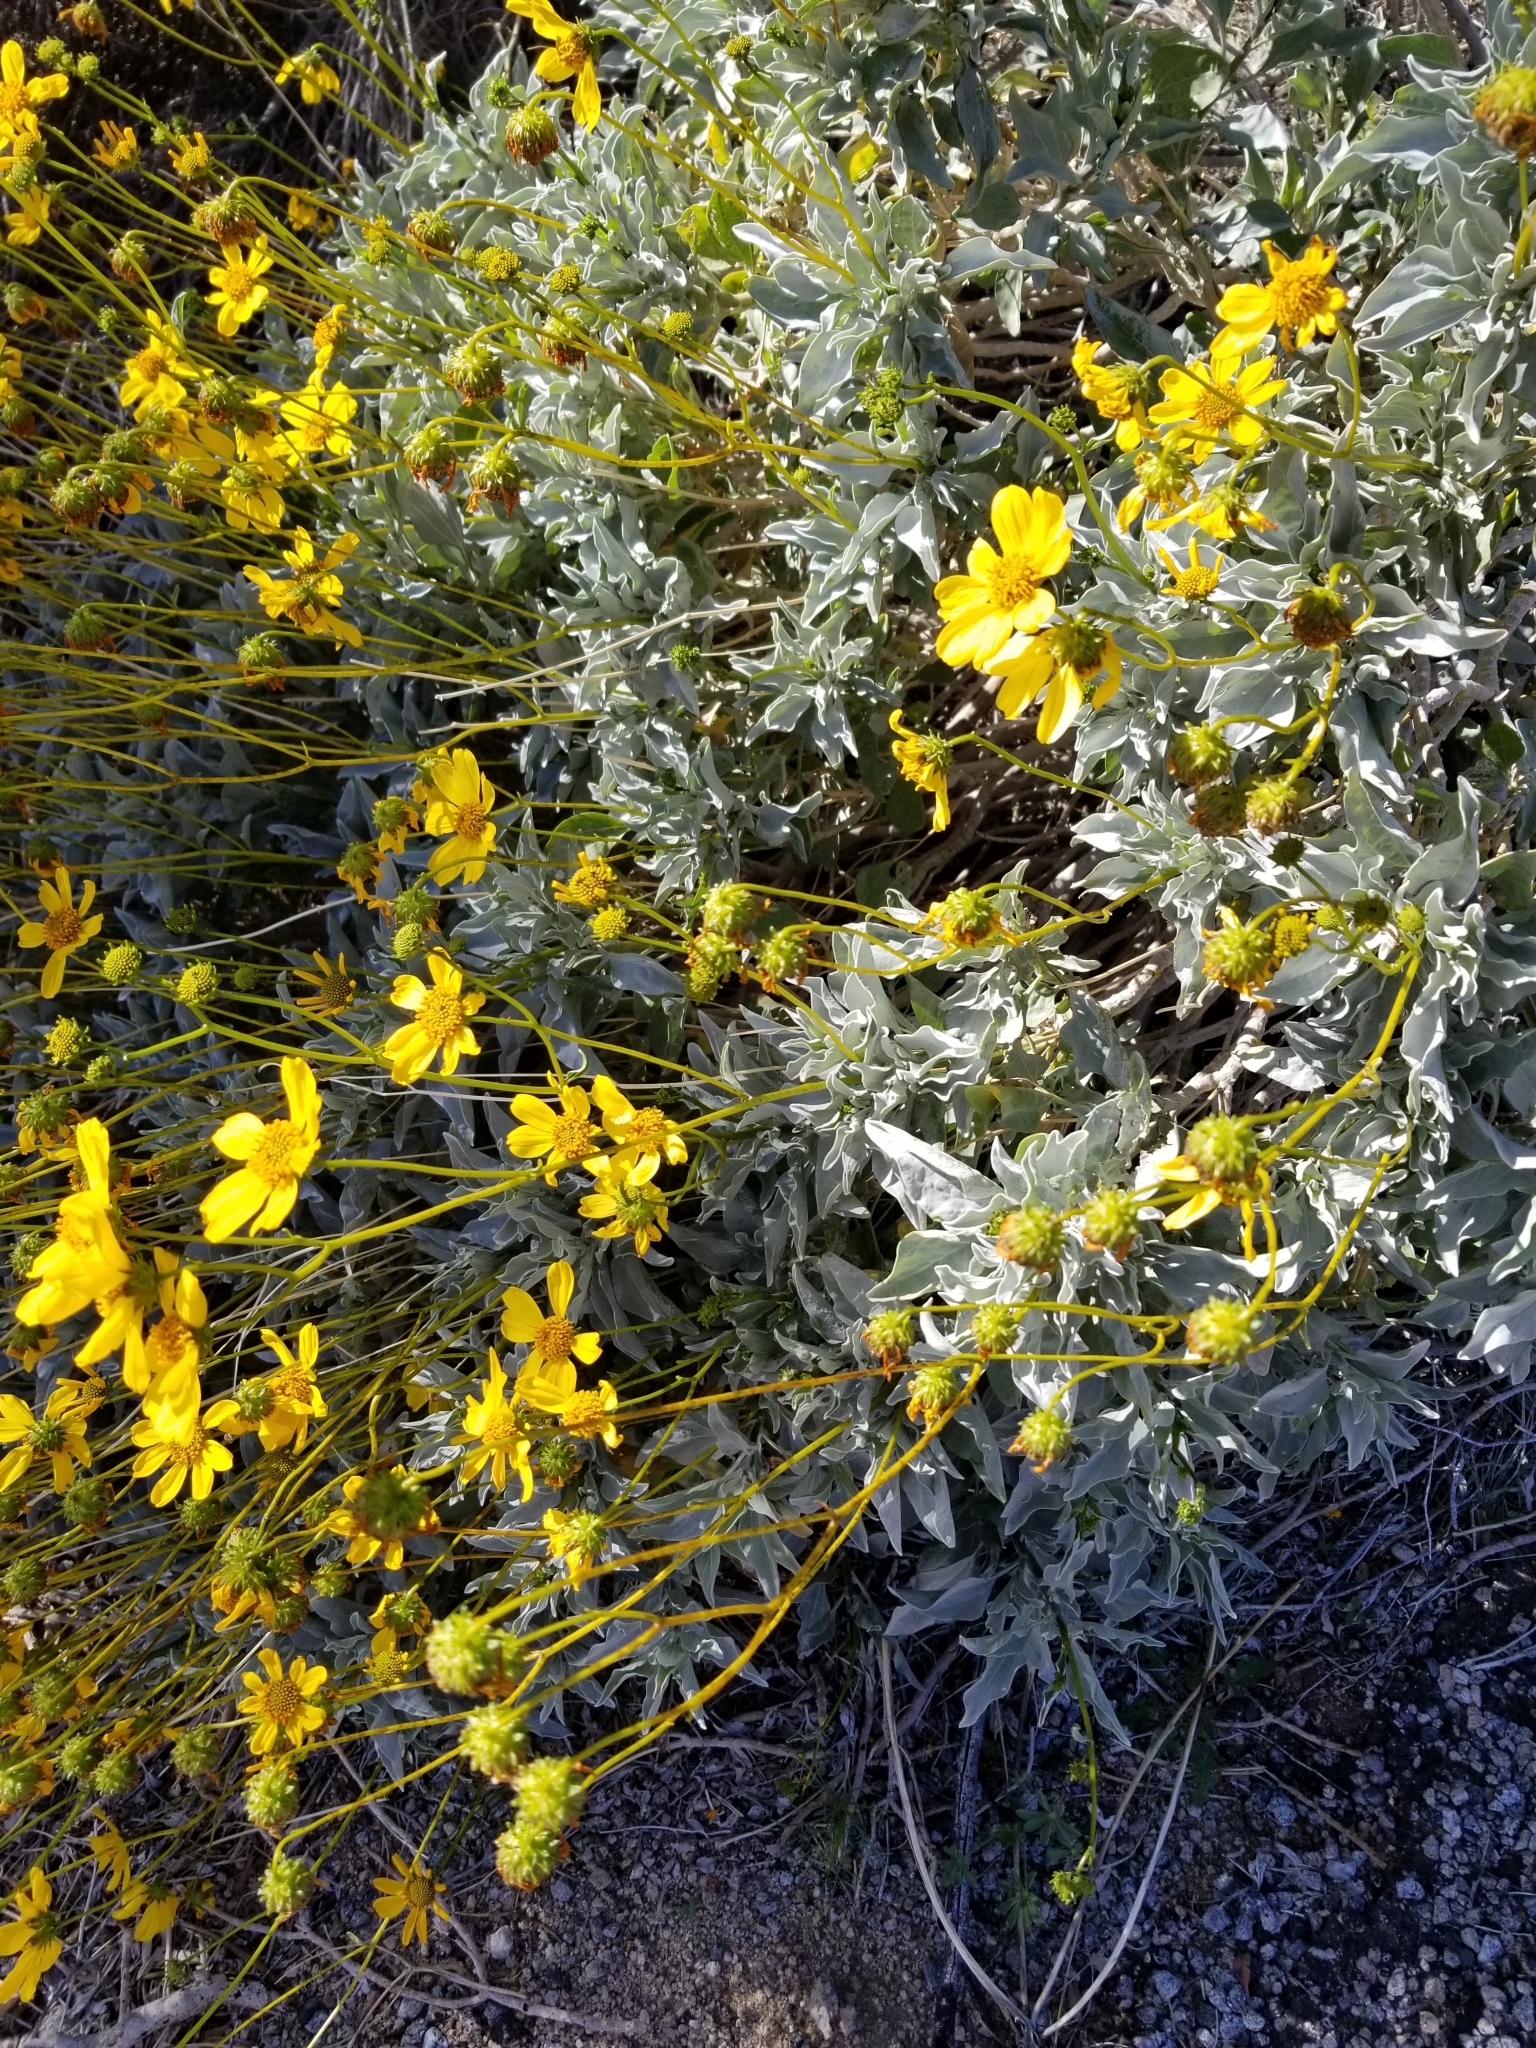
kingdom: Plantae
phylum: Tracheophyta
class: Magnoliopsida
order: Asterales
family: Asteraceae
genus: Encelia
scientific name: Encelia farinosa
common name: Brittlebush
